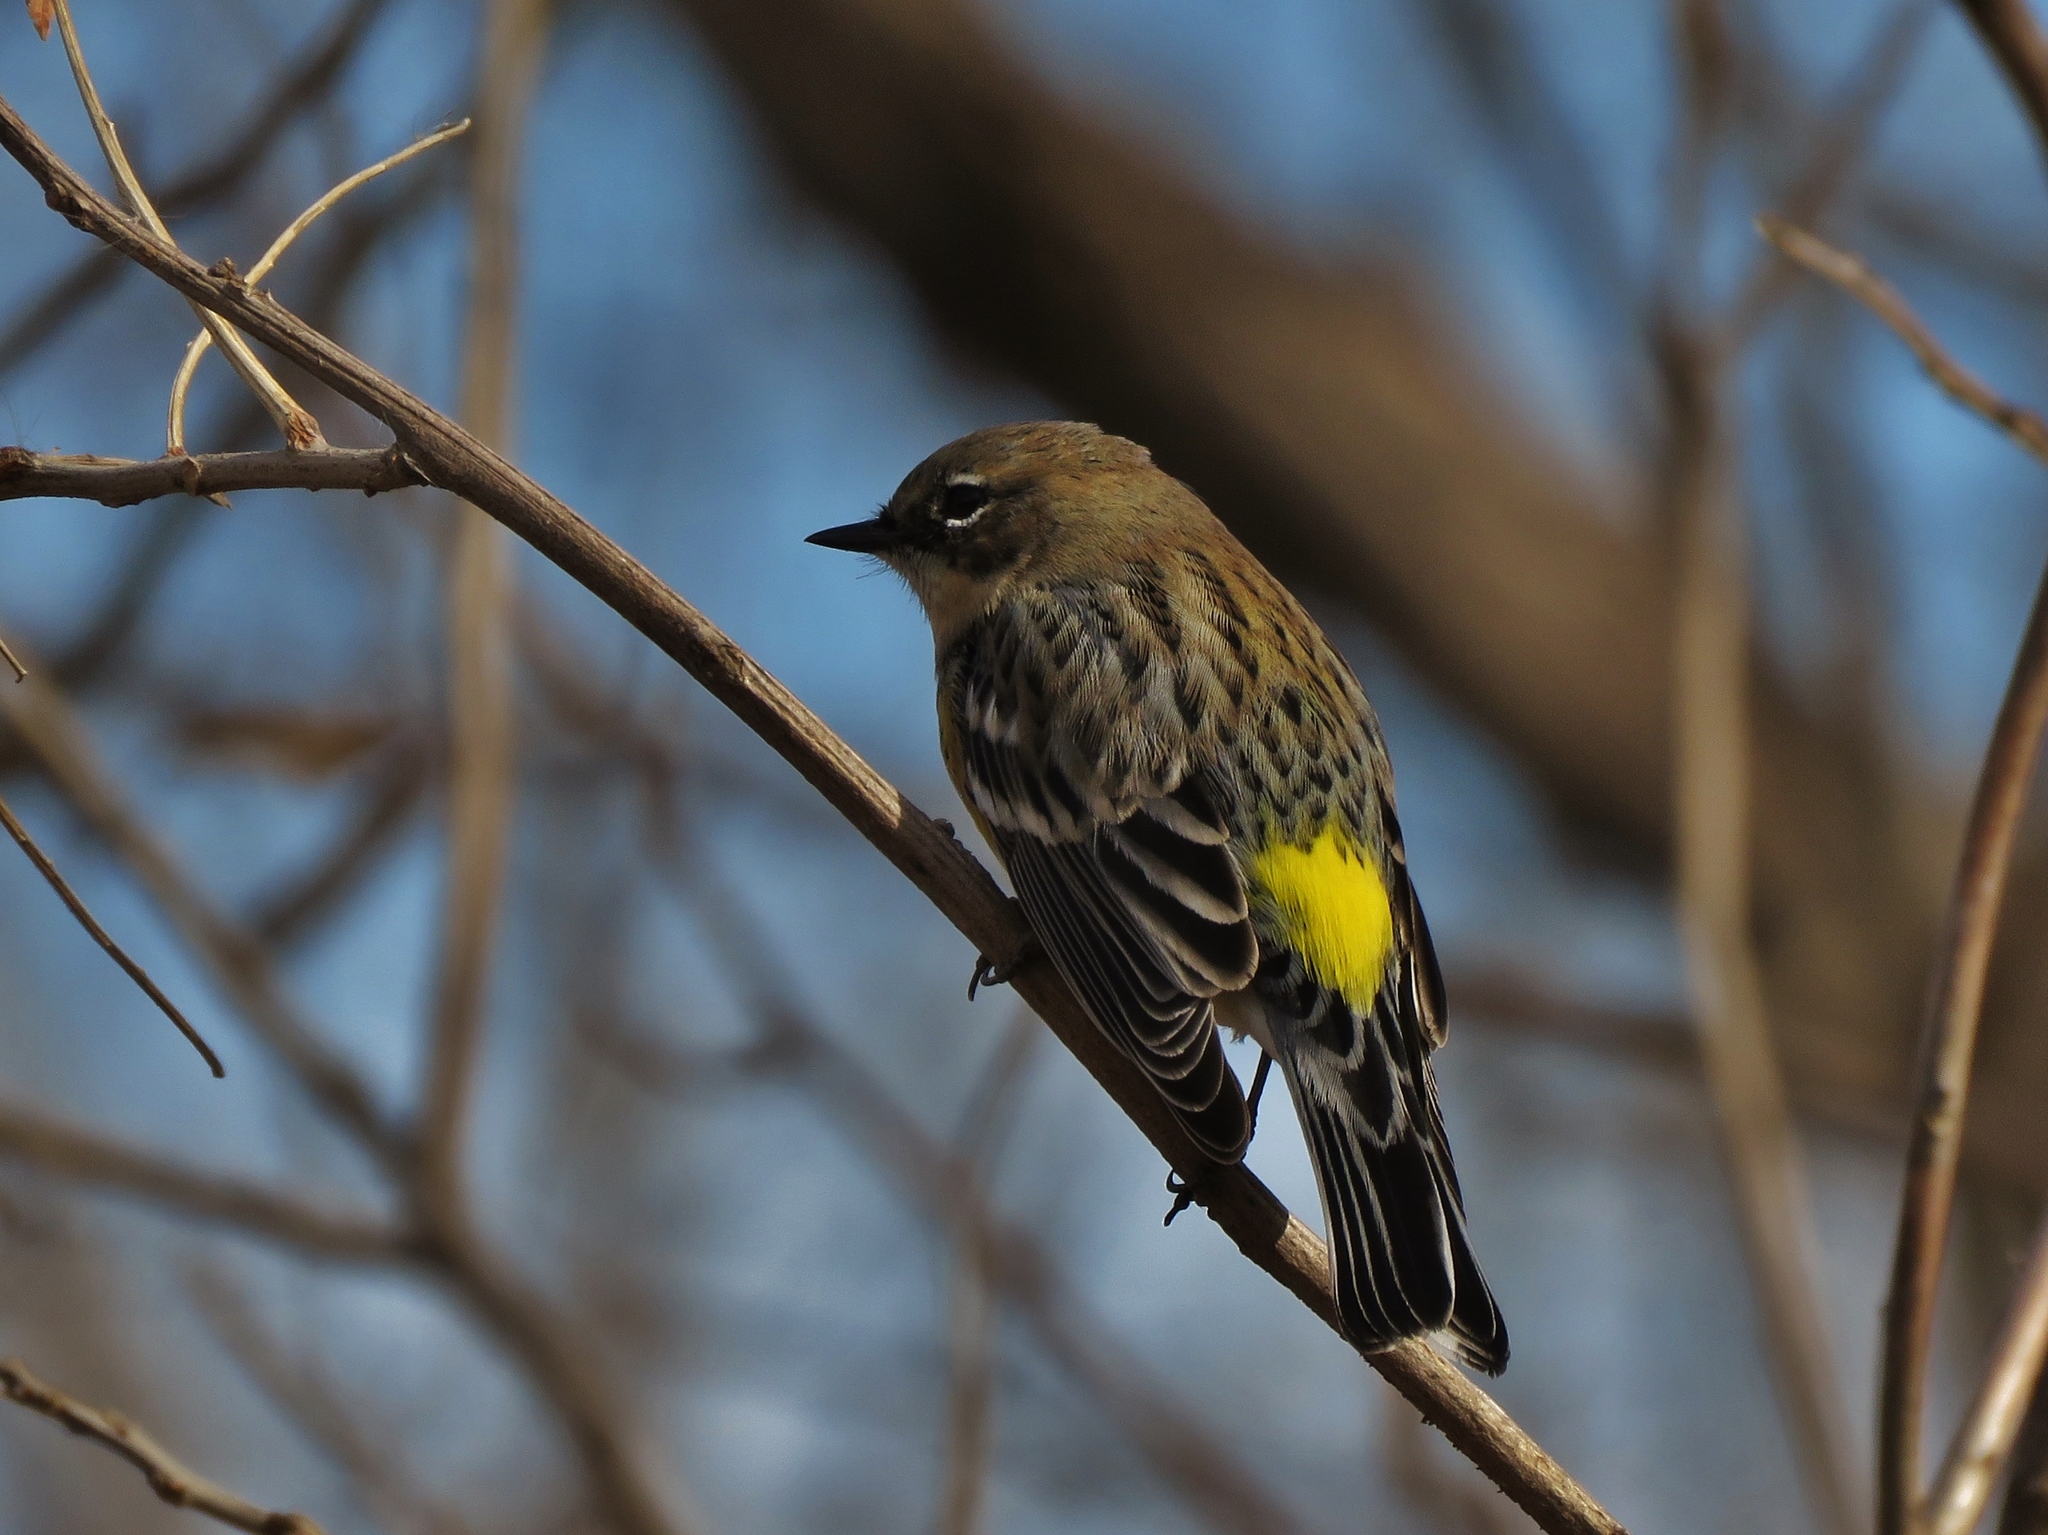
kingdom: Animalia
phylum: Chordata
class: Aves
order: Passeriformes
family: Parulidae
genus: Setophaga
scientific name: Setophaga coronata
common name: Myrtle warbler
